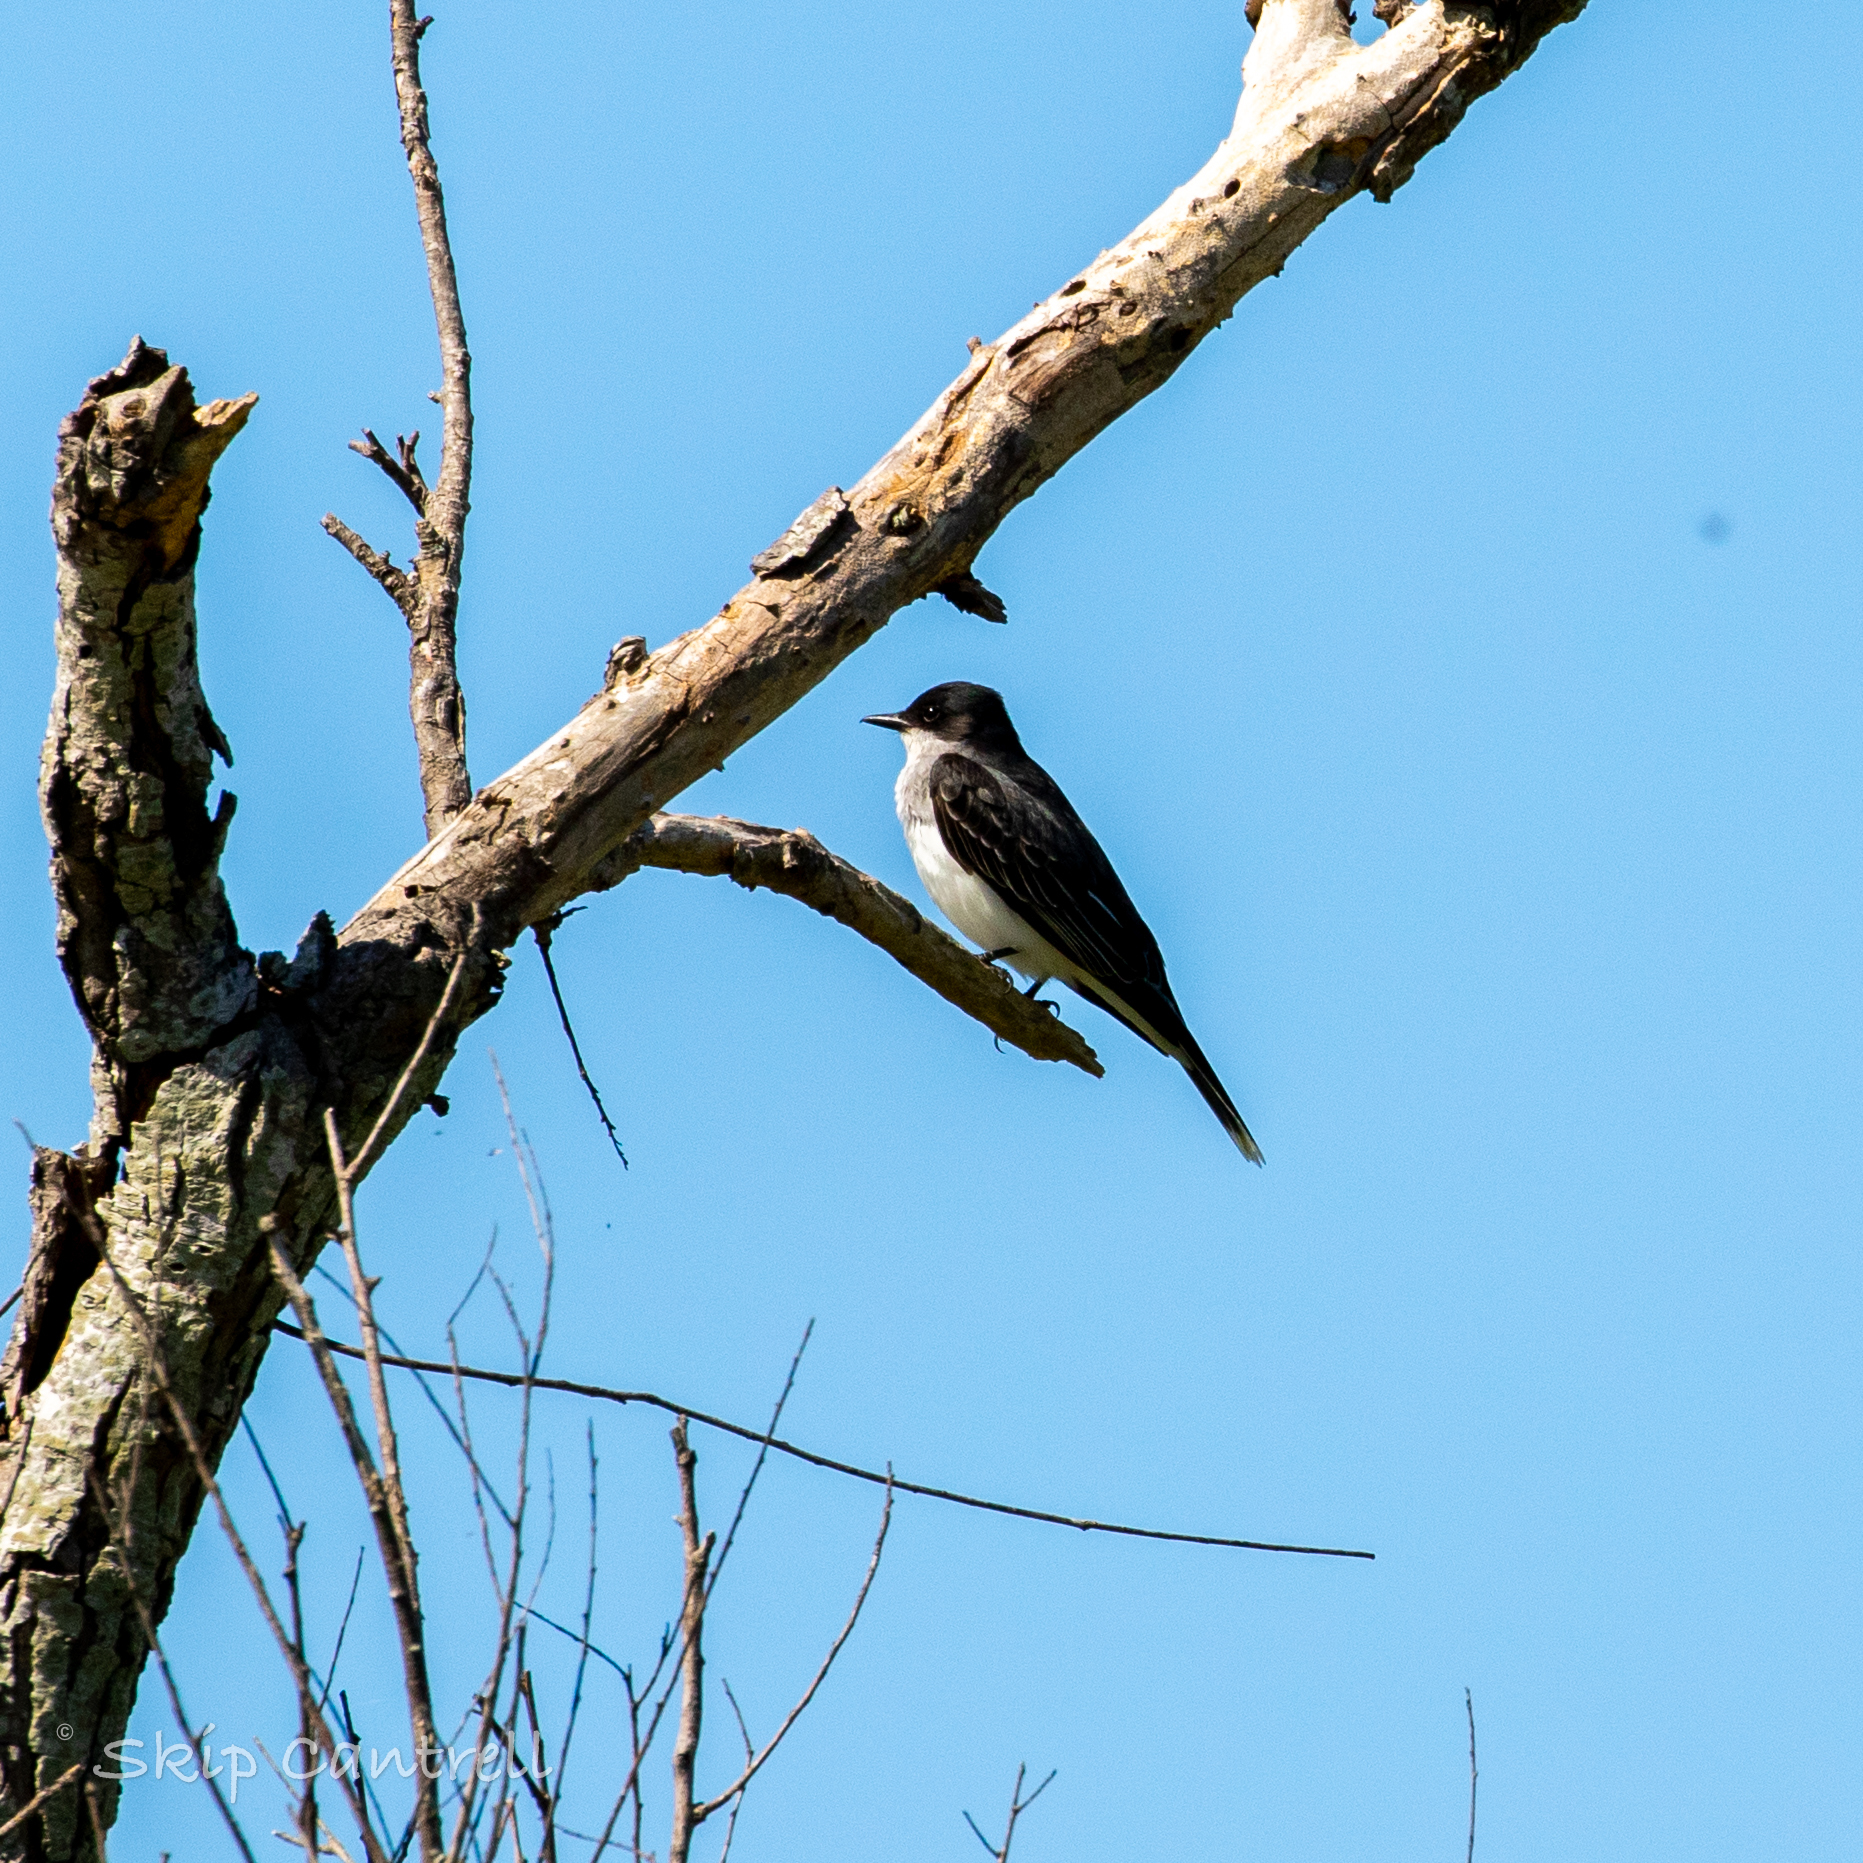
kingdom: Animalia
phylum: Chordata
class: Aves
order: Passeriformes
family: Tyrannidae
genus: Tyrannus
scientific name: Tyrannus tyrannus
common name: Eastern kingbird
